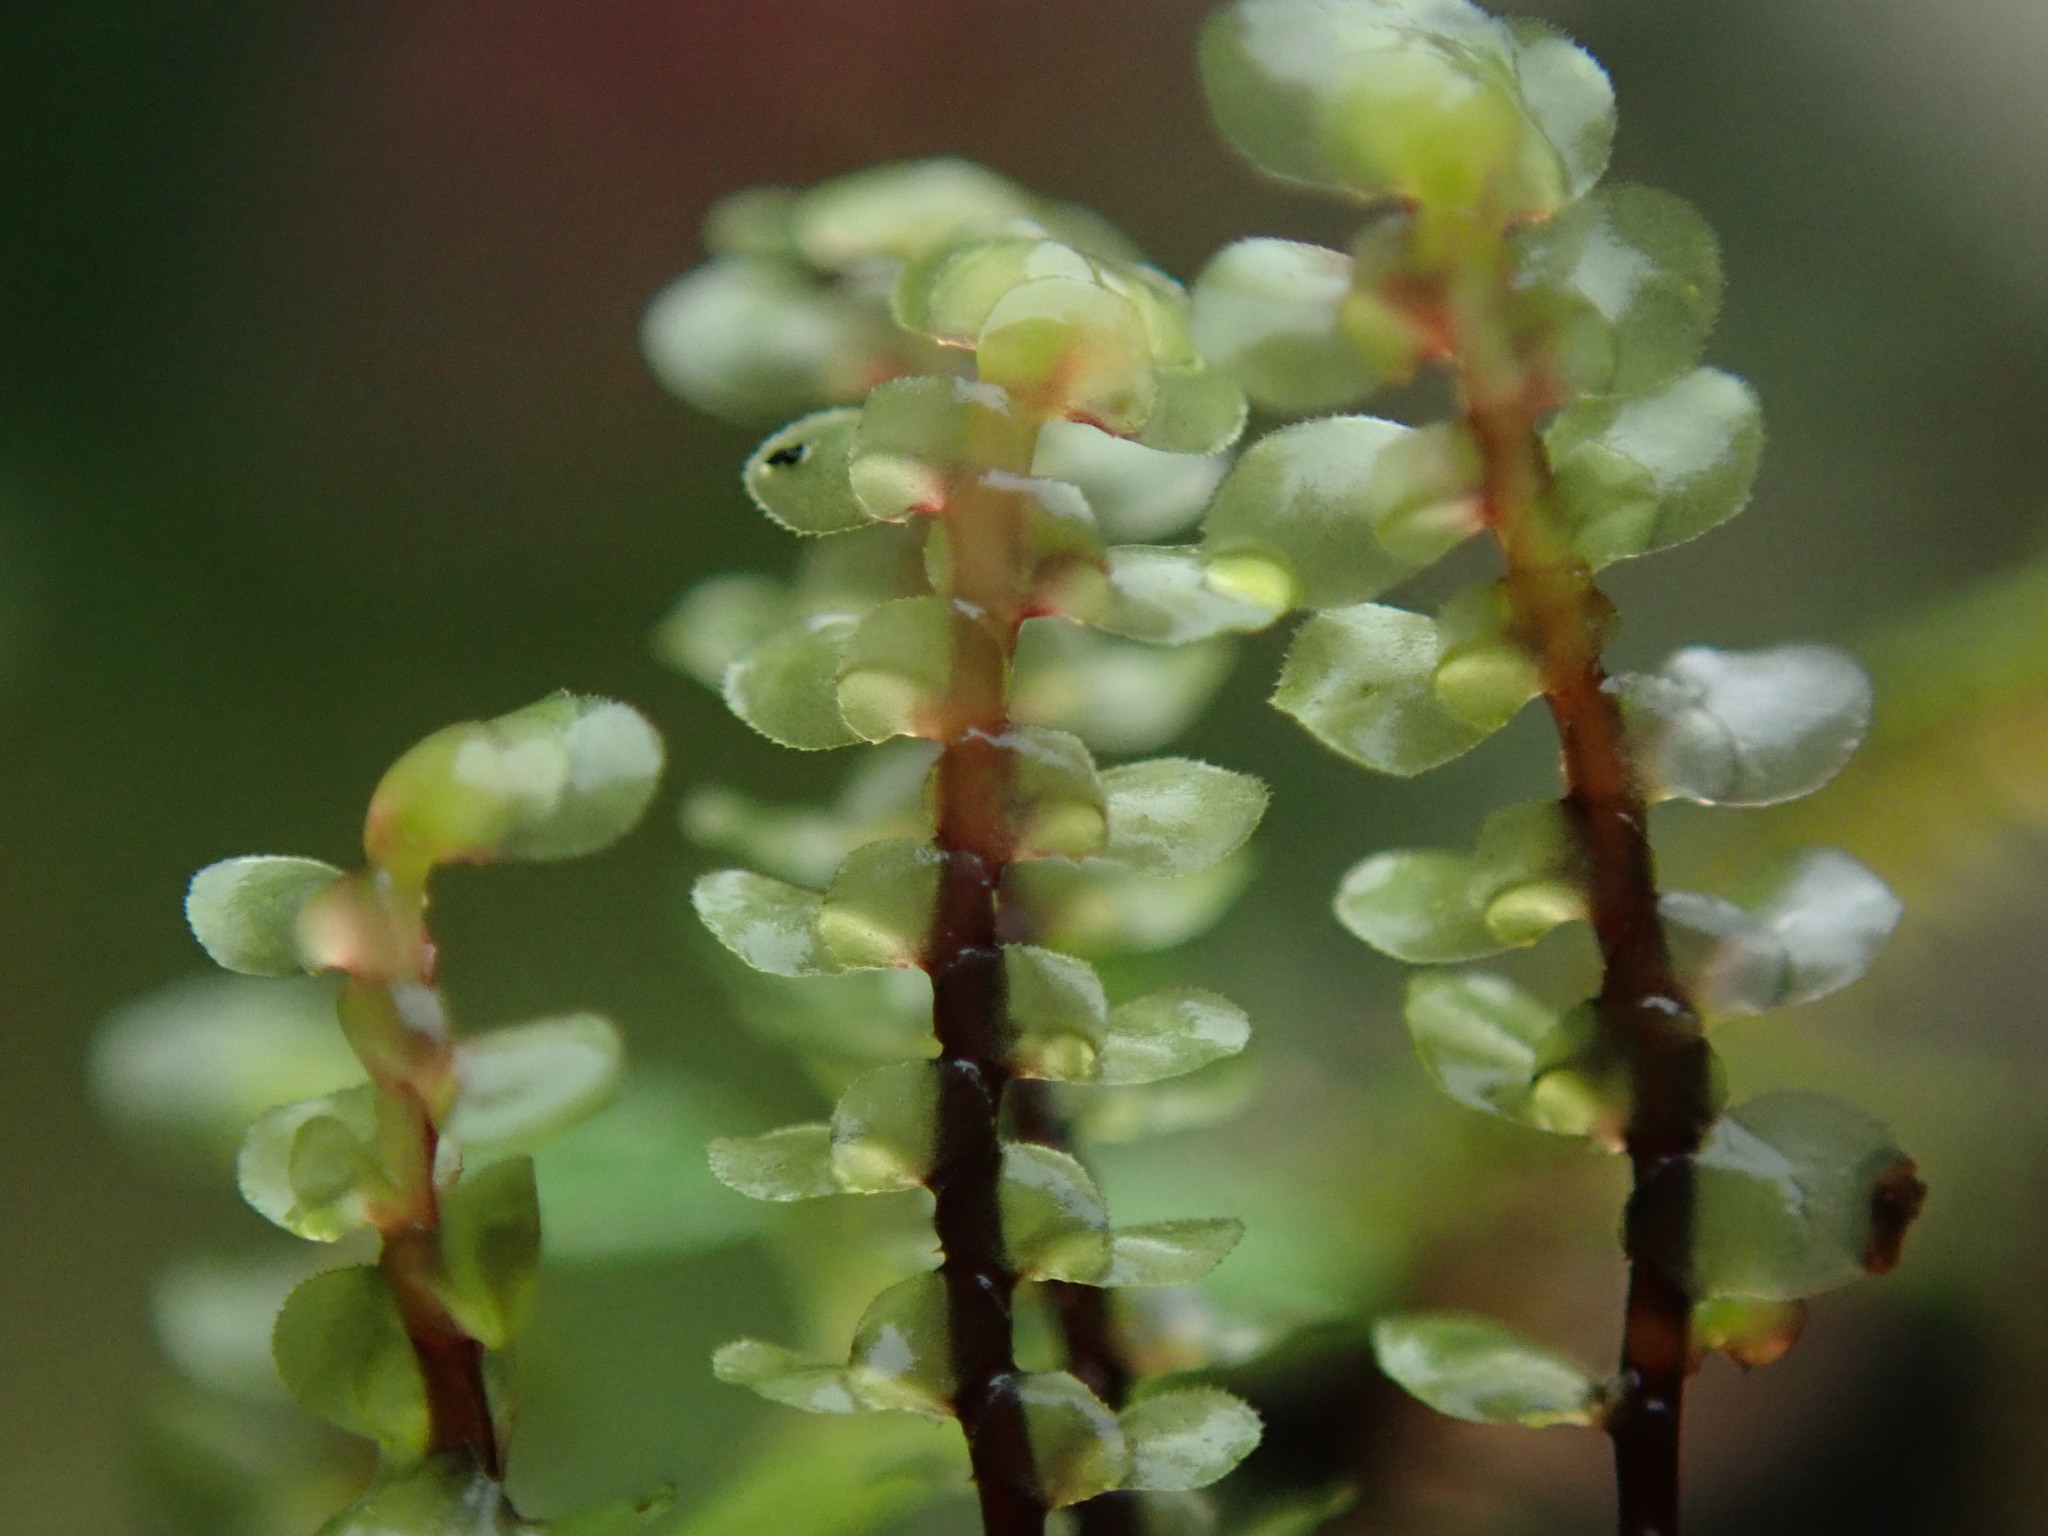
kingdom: Plantae
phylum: Marchantiophyta
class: Jungermanniopsida
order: Jungermanniales
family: Scapaniaceae
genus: Scapania
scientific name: Scapania undulata
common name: Water earwort
